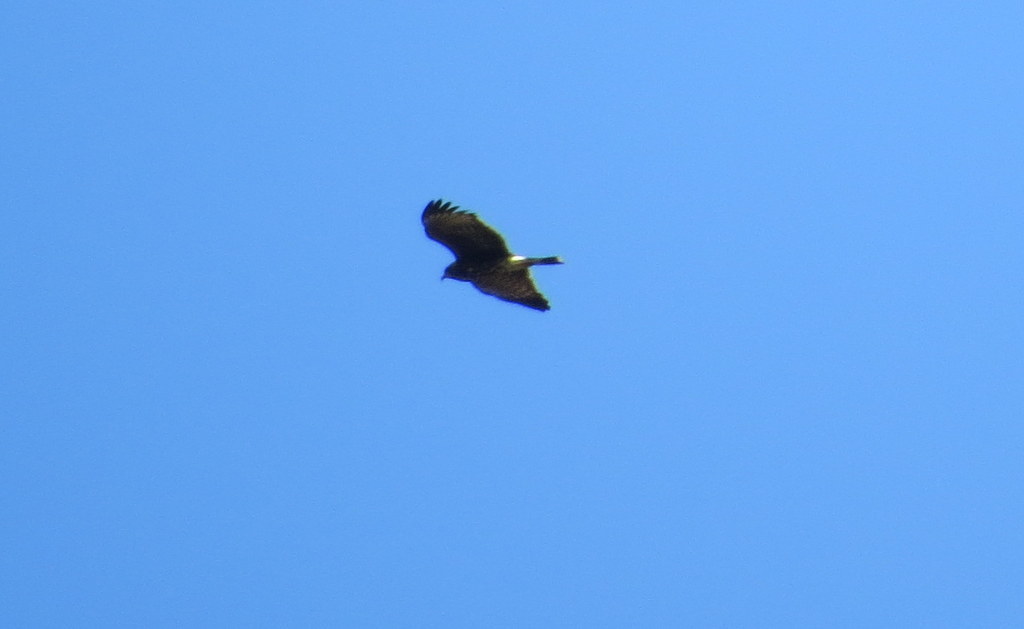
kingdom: Animalia
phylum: Chordata
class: Aves
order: Accipitriformes
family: Accipitridae
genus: Rostrhamus
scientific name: Rostrhamus sociabilis
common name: Snail kite
